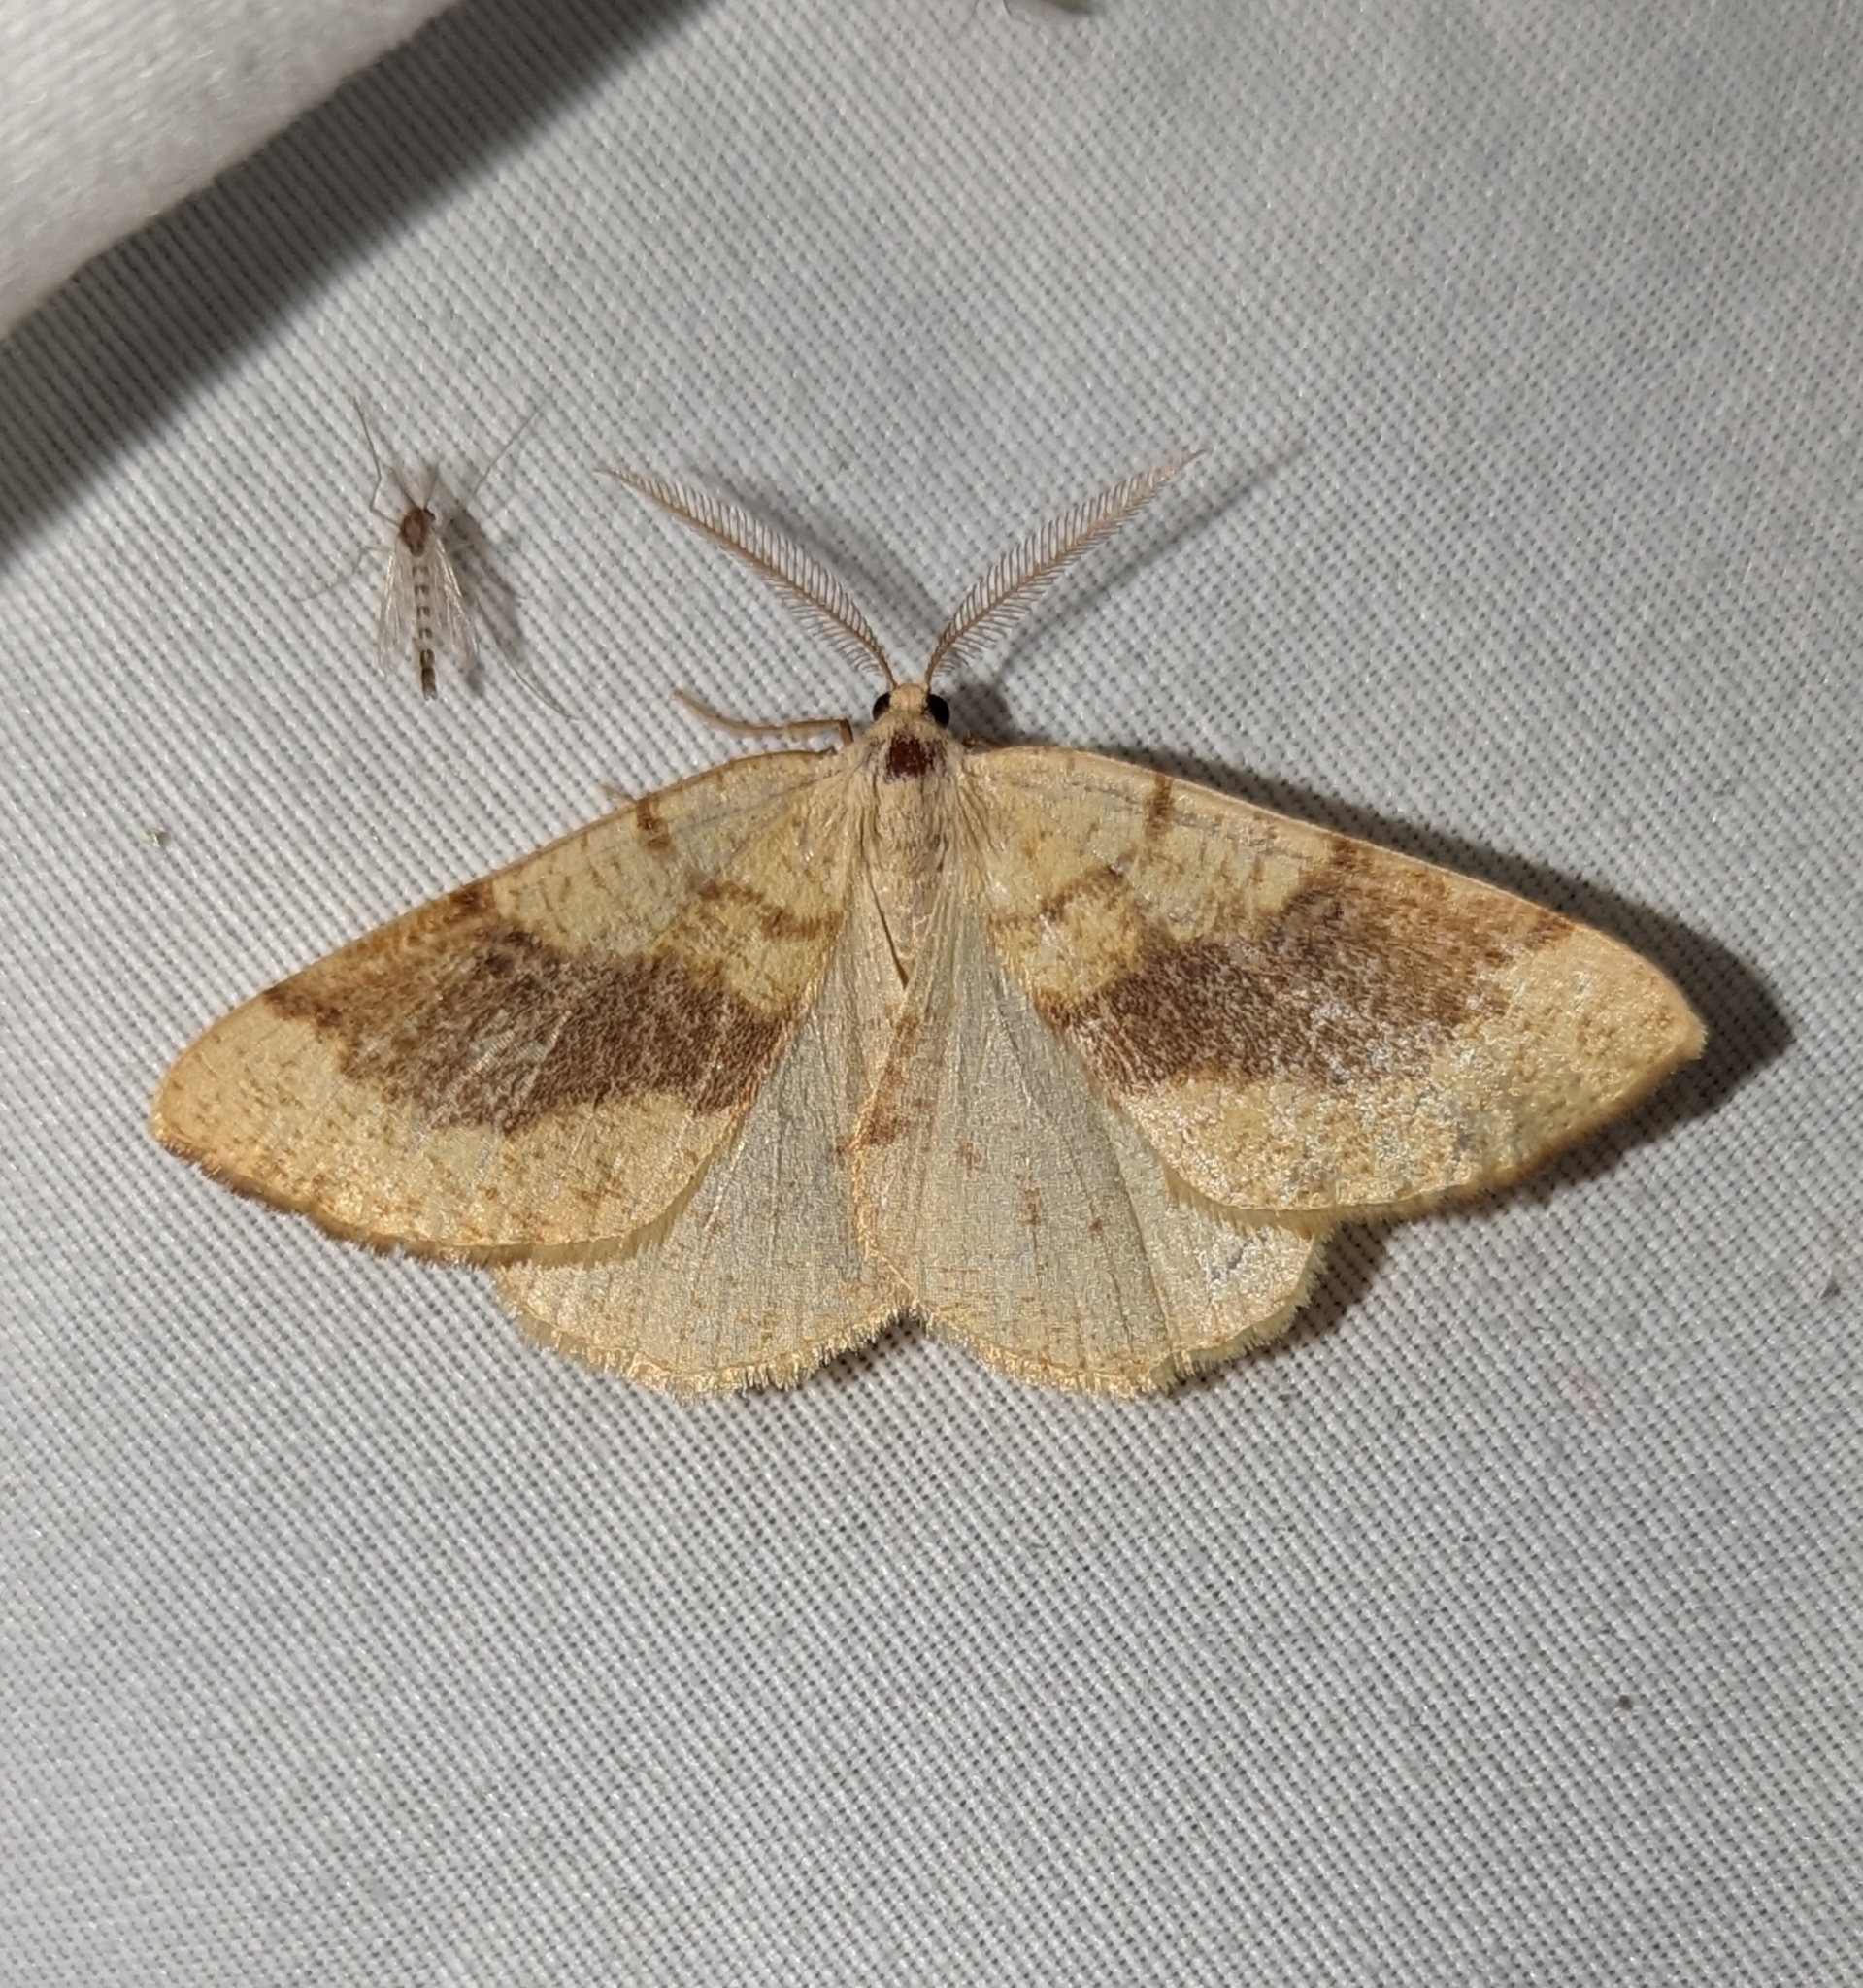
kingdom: Animalia
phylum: Arthropoda
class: Insecta
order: Lepidoptera
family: Geometridae
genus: Hesperumia
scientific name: Hesperumia sulphuraria
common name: Sulphur moth
